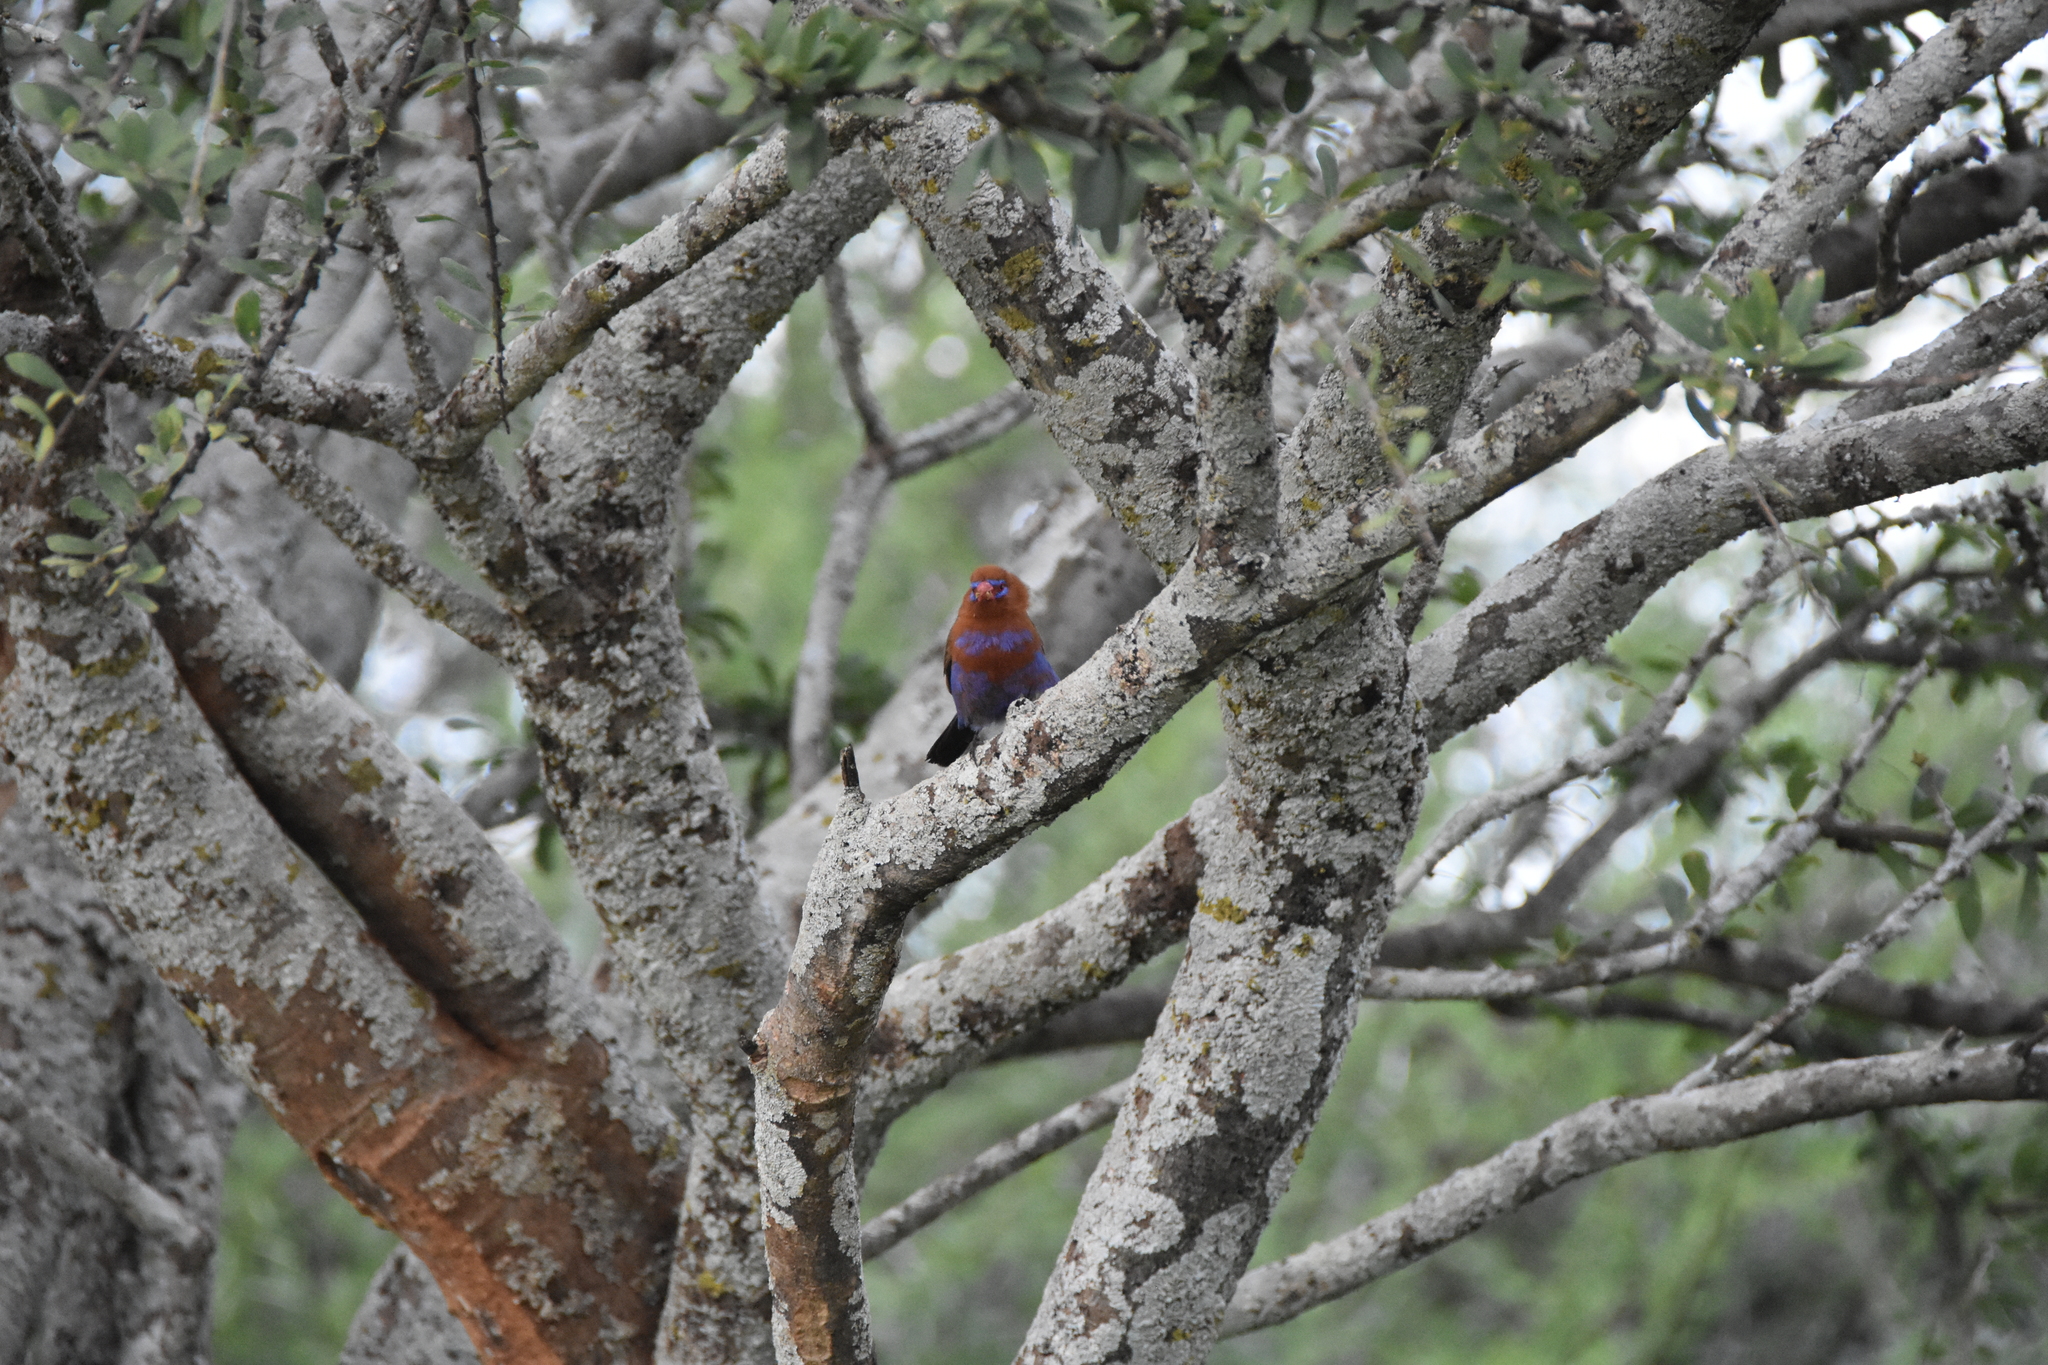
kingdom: Animalia
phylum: Chordata
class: Aves
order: Passeriformes
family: Estrildidae
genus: Uraeginthus
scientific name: Uraeginthus ianthinogaster
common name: Purple grenadier
